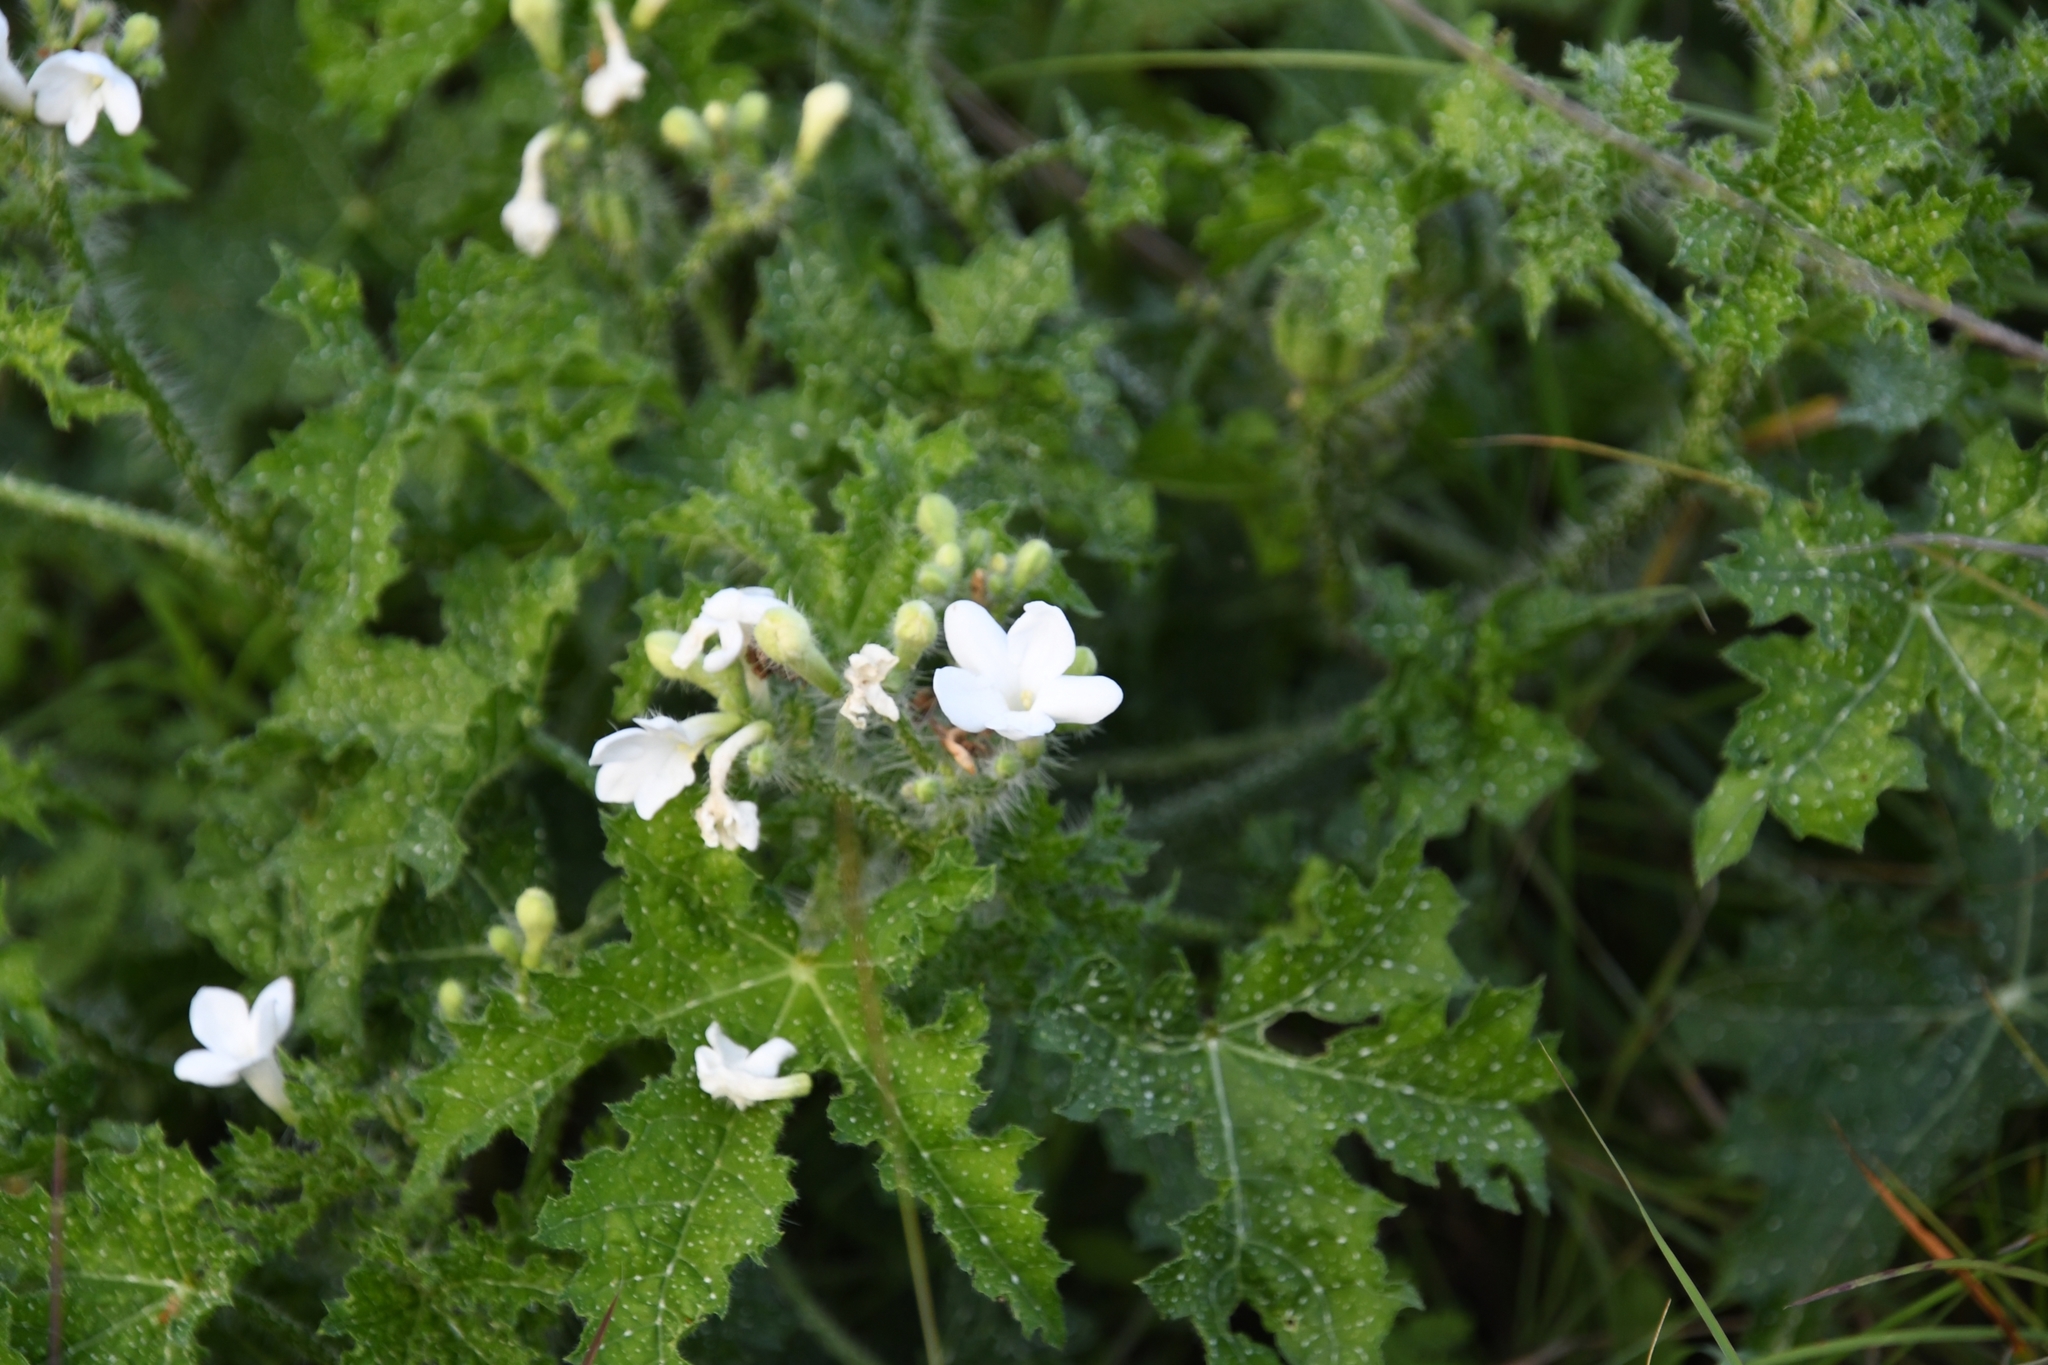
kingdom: Plantae
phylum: Tracheophyta
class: Magnoliopsida
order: Malpighiales
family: Euphorbiaceae
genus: Cnidoscolus
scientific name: Cnidoscolus texanus
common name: Texas bull-nettle
